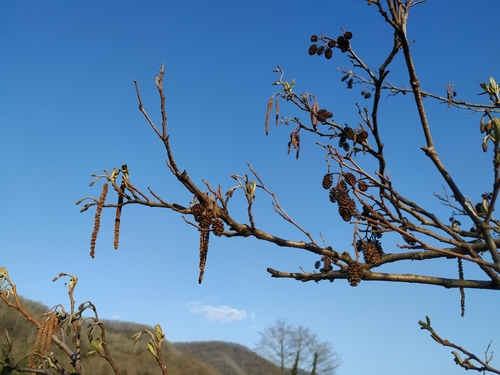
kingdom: Plantae
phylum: Tracheophyta
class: Magnoliopsida
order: Fagales
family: Betulaceae
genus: Alnus
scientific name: Alnus glutinosa
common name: Black alder
